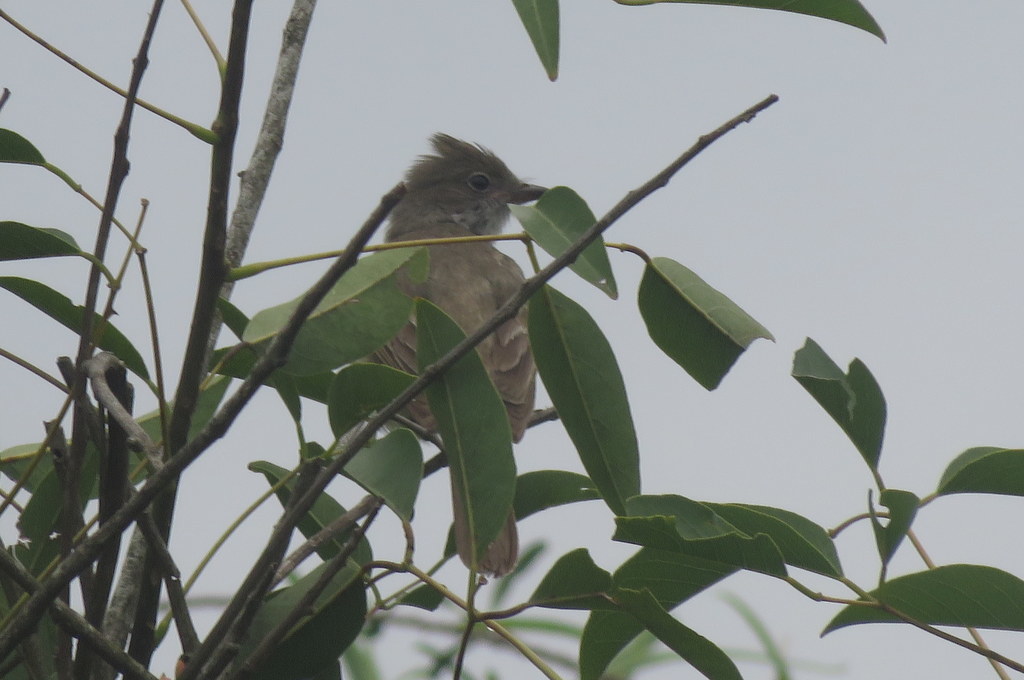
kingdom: Animalia
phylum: Chordata
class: Aves
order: Passeriformes
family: Tyrannidae
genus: Elaenia
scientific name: Elaenia spectabilis
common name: Large elaenia
